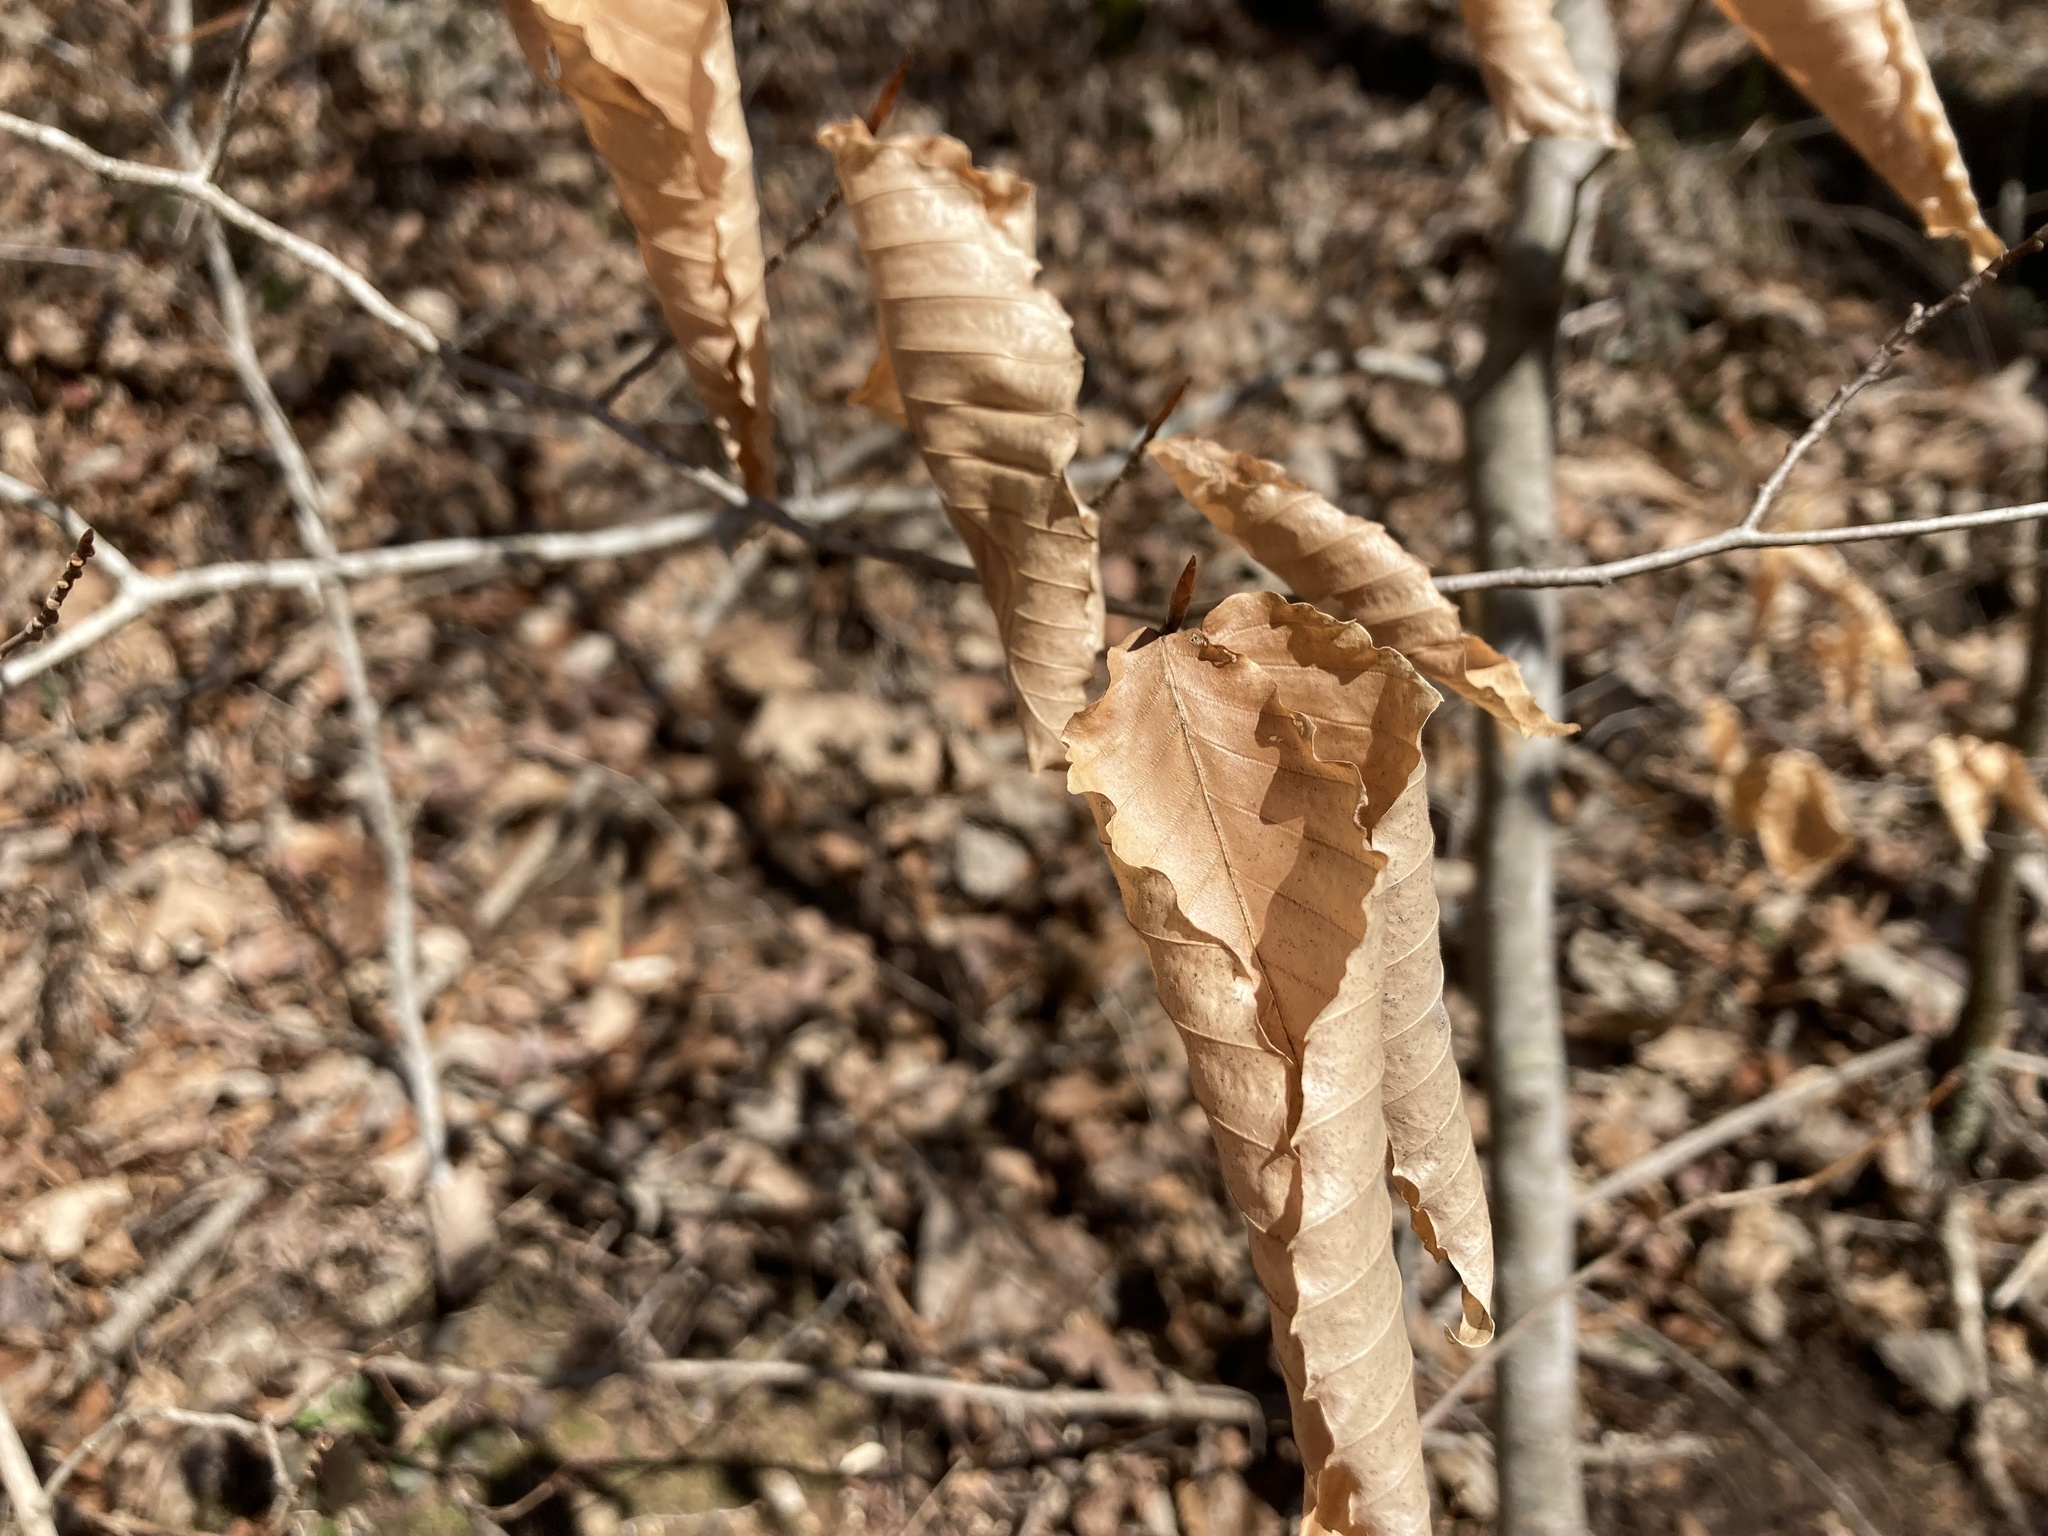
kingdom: Plantae
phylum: Tracheophyta
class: Magnoliopsida
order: Fagales
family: Fagaceae
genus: Fagus
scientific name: Fagus grandifolia
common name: American beech
